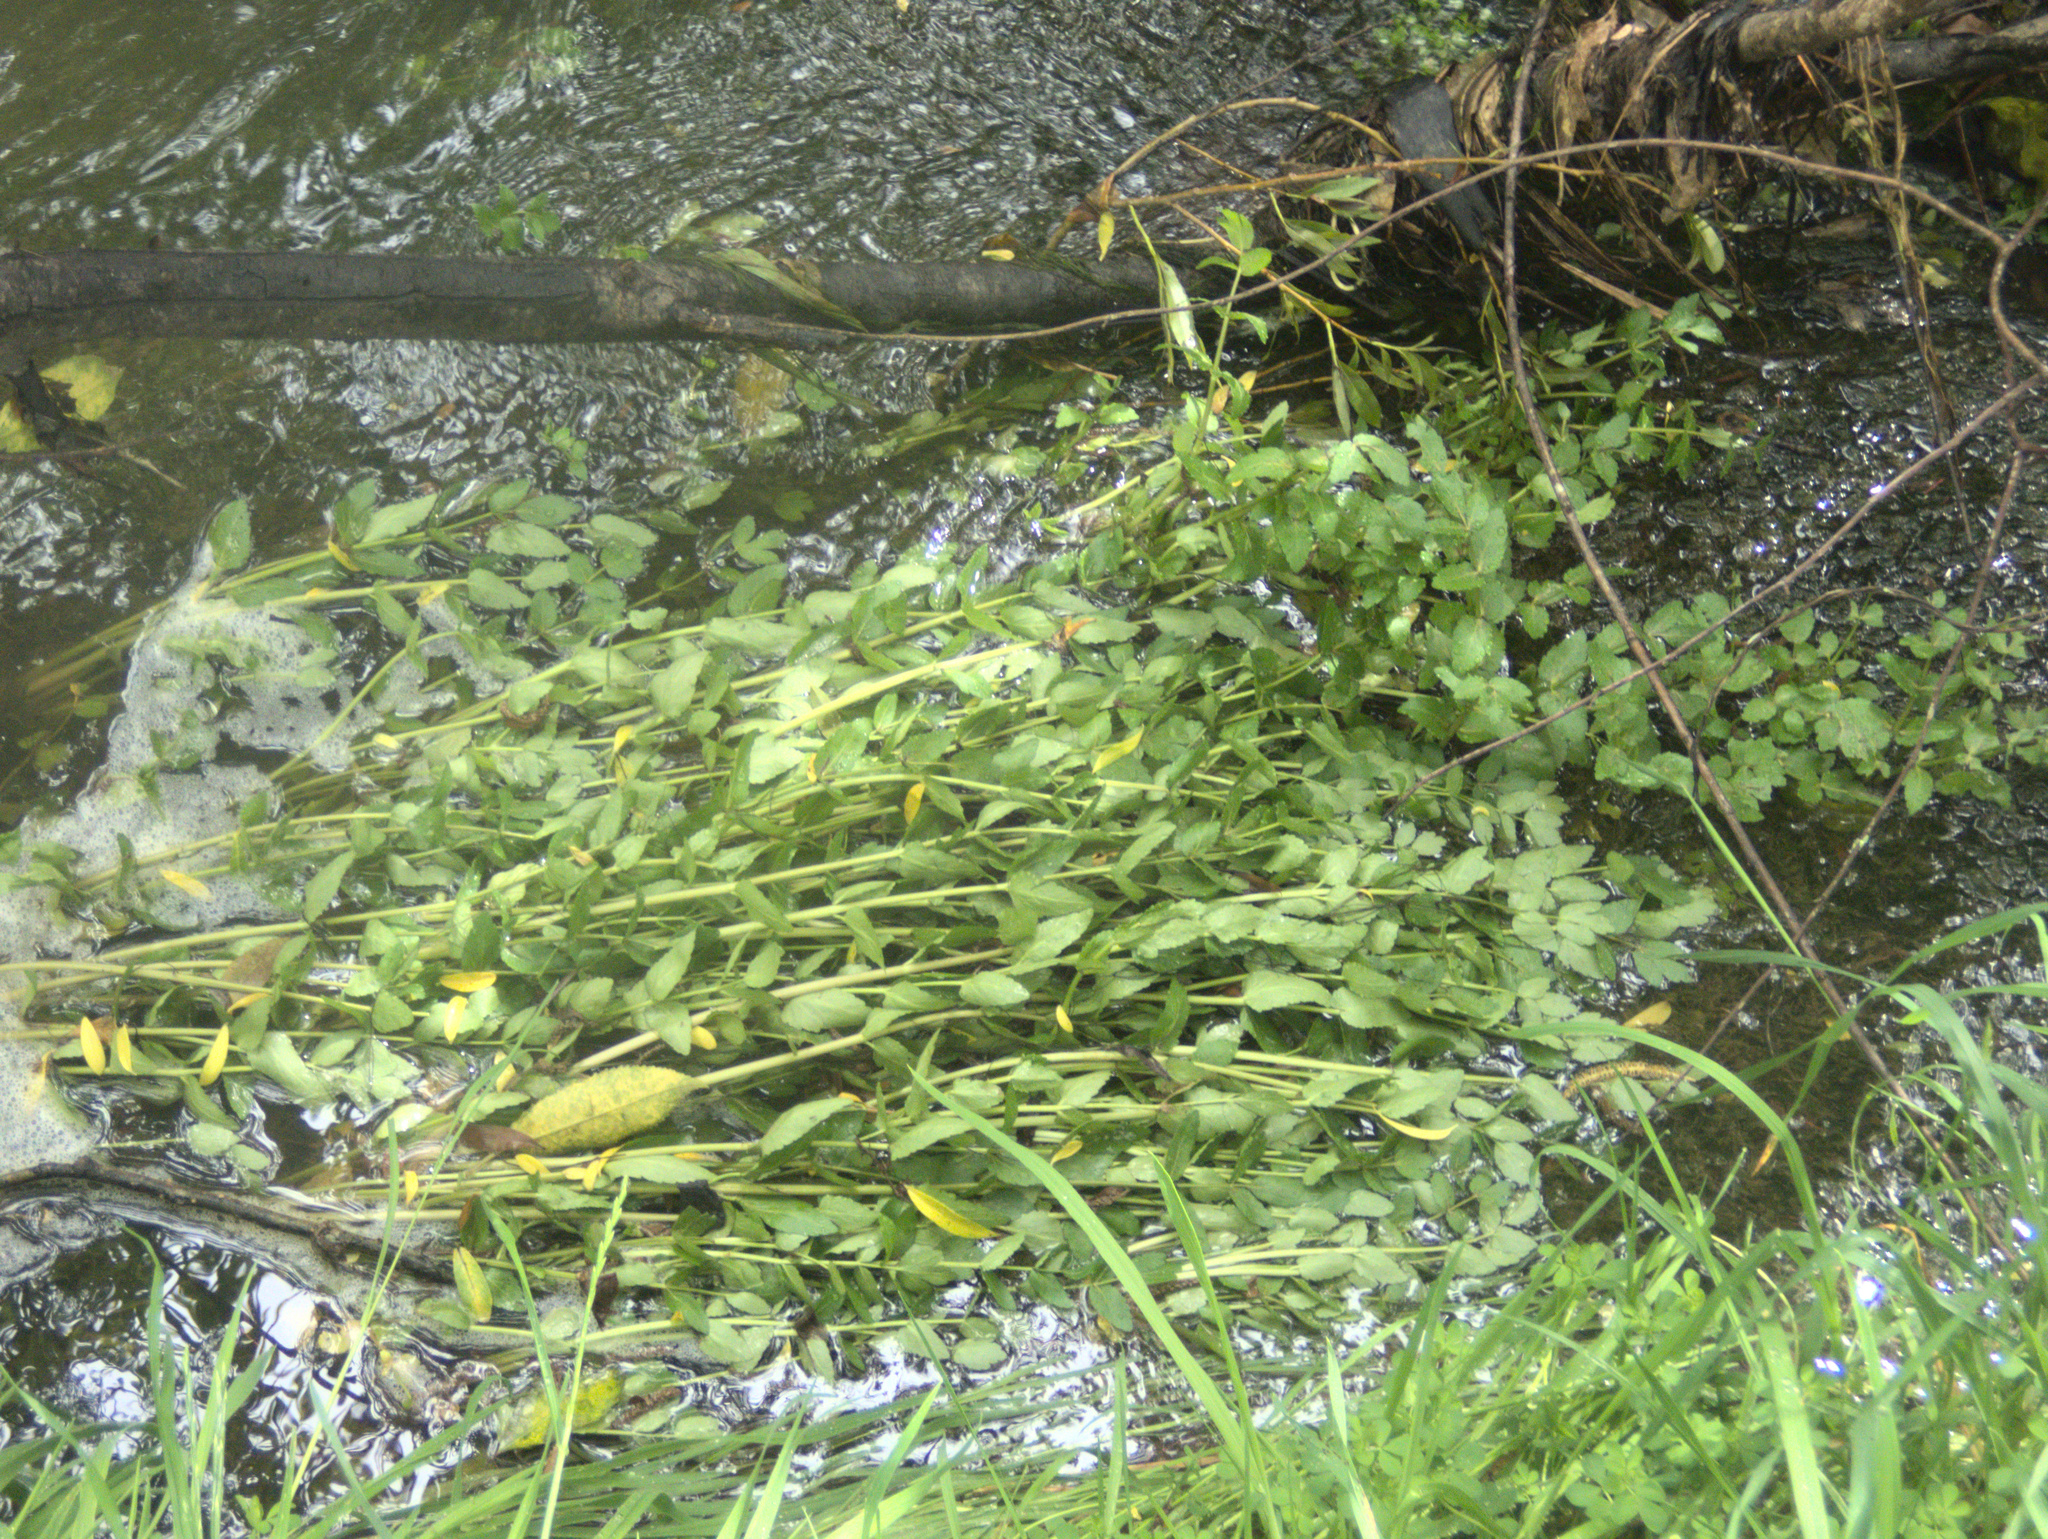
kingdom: Plantae
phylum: Tracheophyta
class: Magnoliopsida
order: Apiales
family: Apiaceae
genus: Helosciadium
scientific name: Helosciadium nodiflorum
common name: Fool's-watercress
